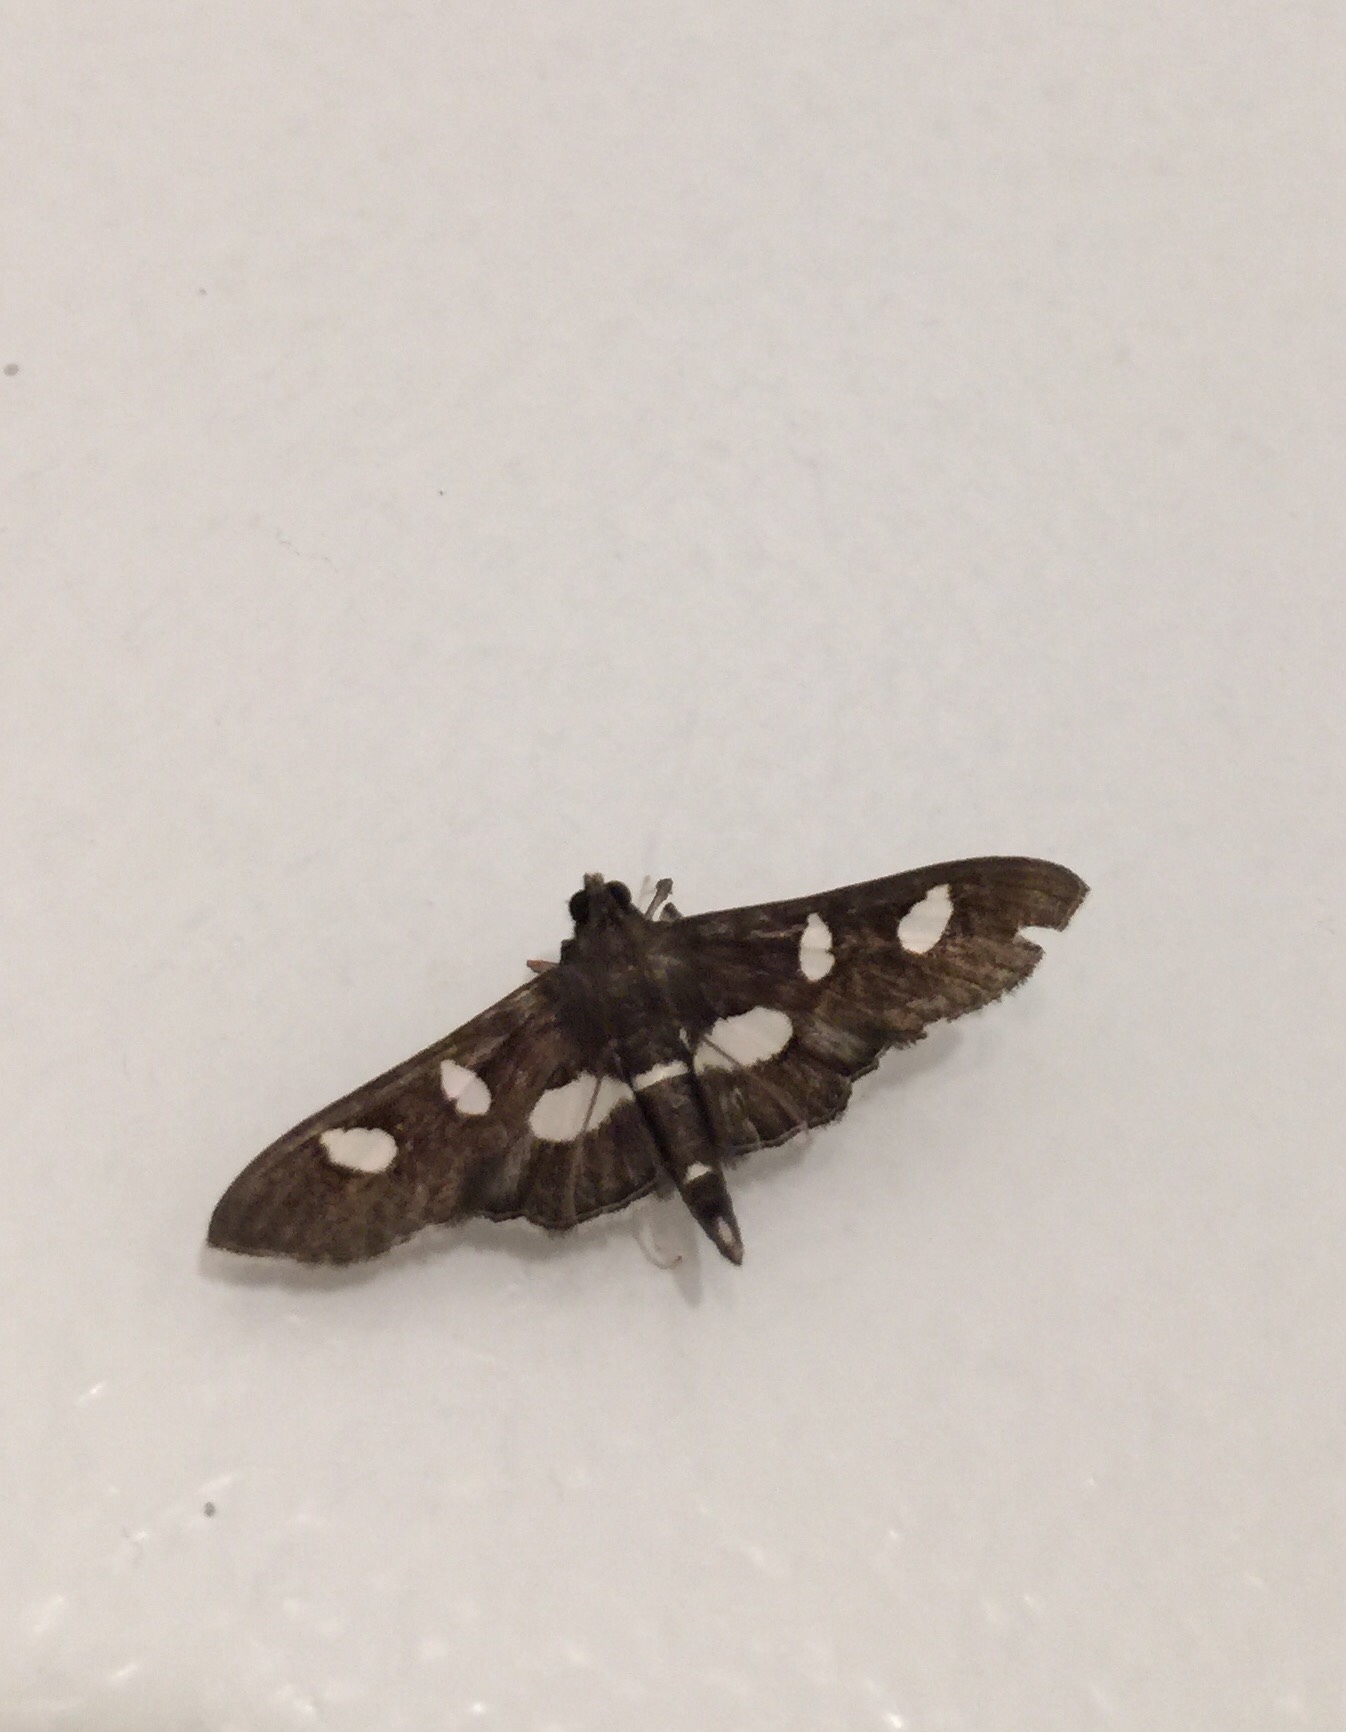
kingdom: Animalia
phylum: Arthropoda
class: Insecta
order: Lepidoptera
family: Crambidae
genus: Desmia
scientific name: Desmia
